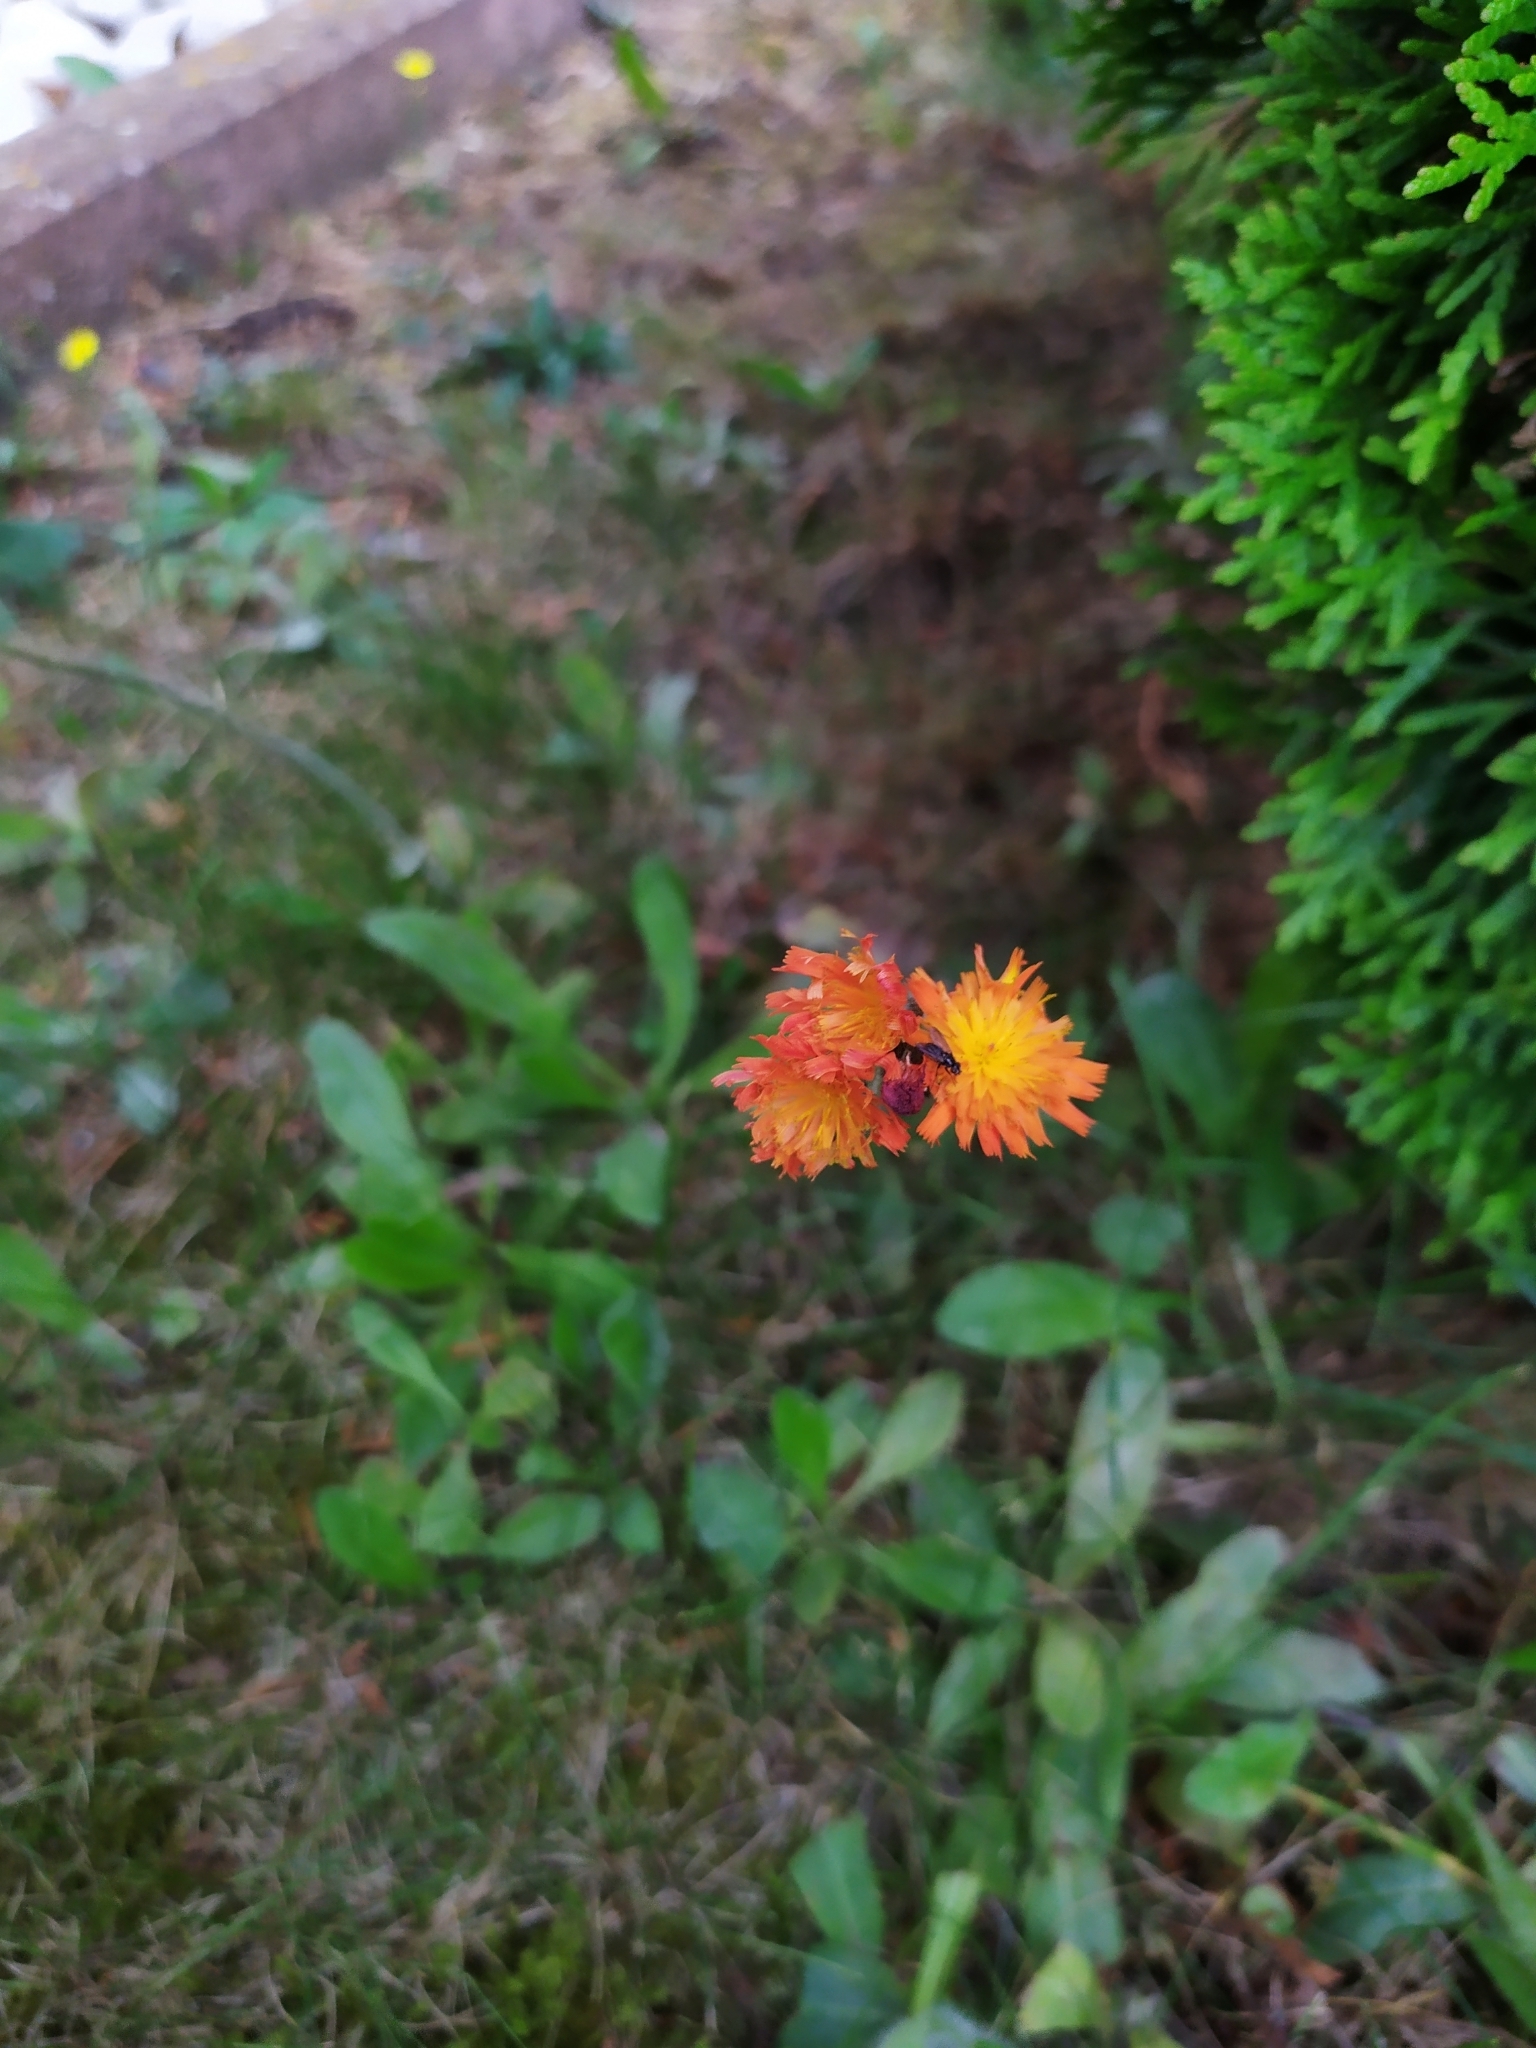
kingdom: Plantae
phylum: Tracheophyta
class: Magnoliopsida
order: Asterales
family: Asteraceae
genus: Pilosella
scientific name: Pilosella aurantiaca
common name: Fox-and-cubs
